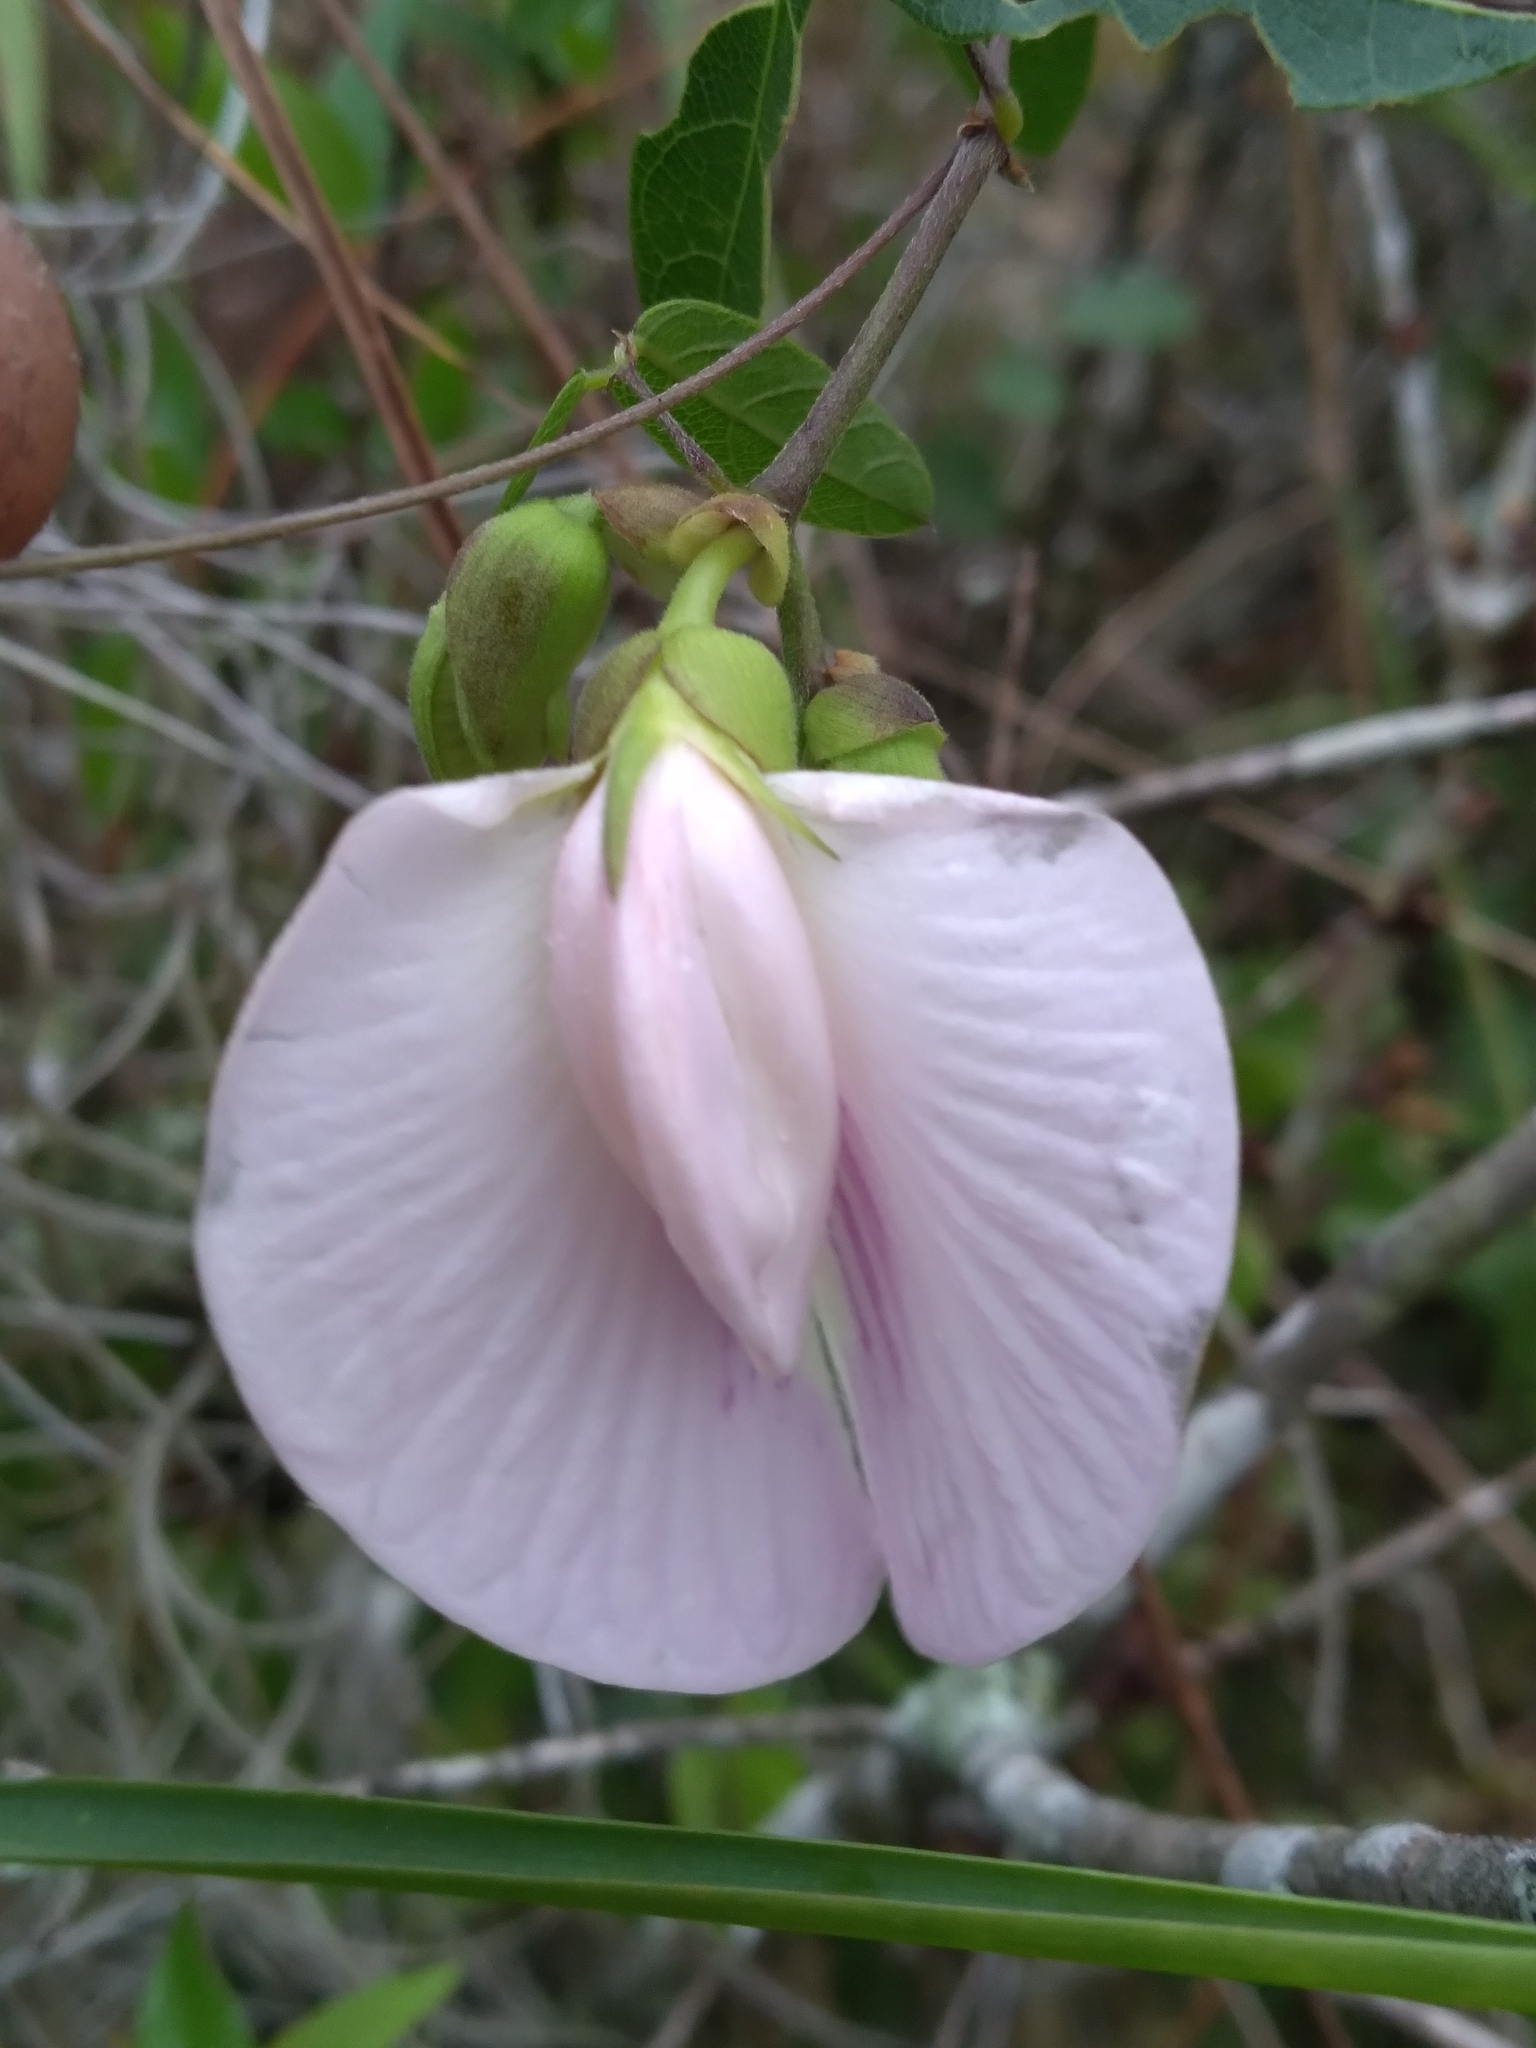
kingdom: Plantae
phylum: Tracheophyta
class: Magnoliopsida
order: Fabales
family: Fabaceae
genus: Centrosema
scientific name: Centrosema arenicola
